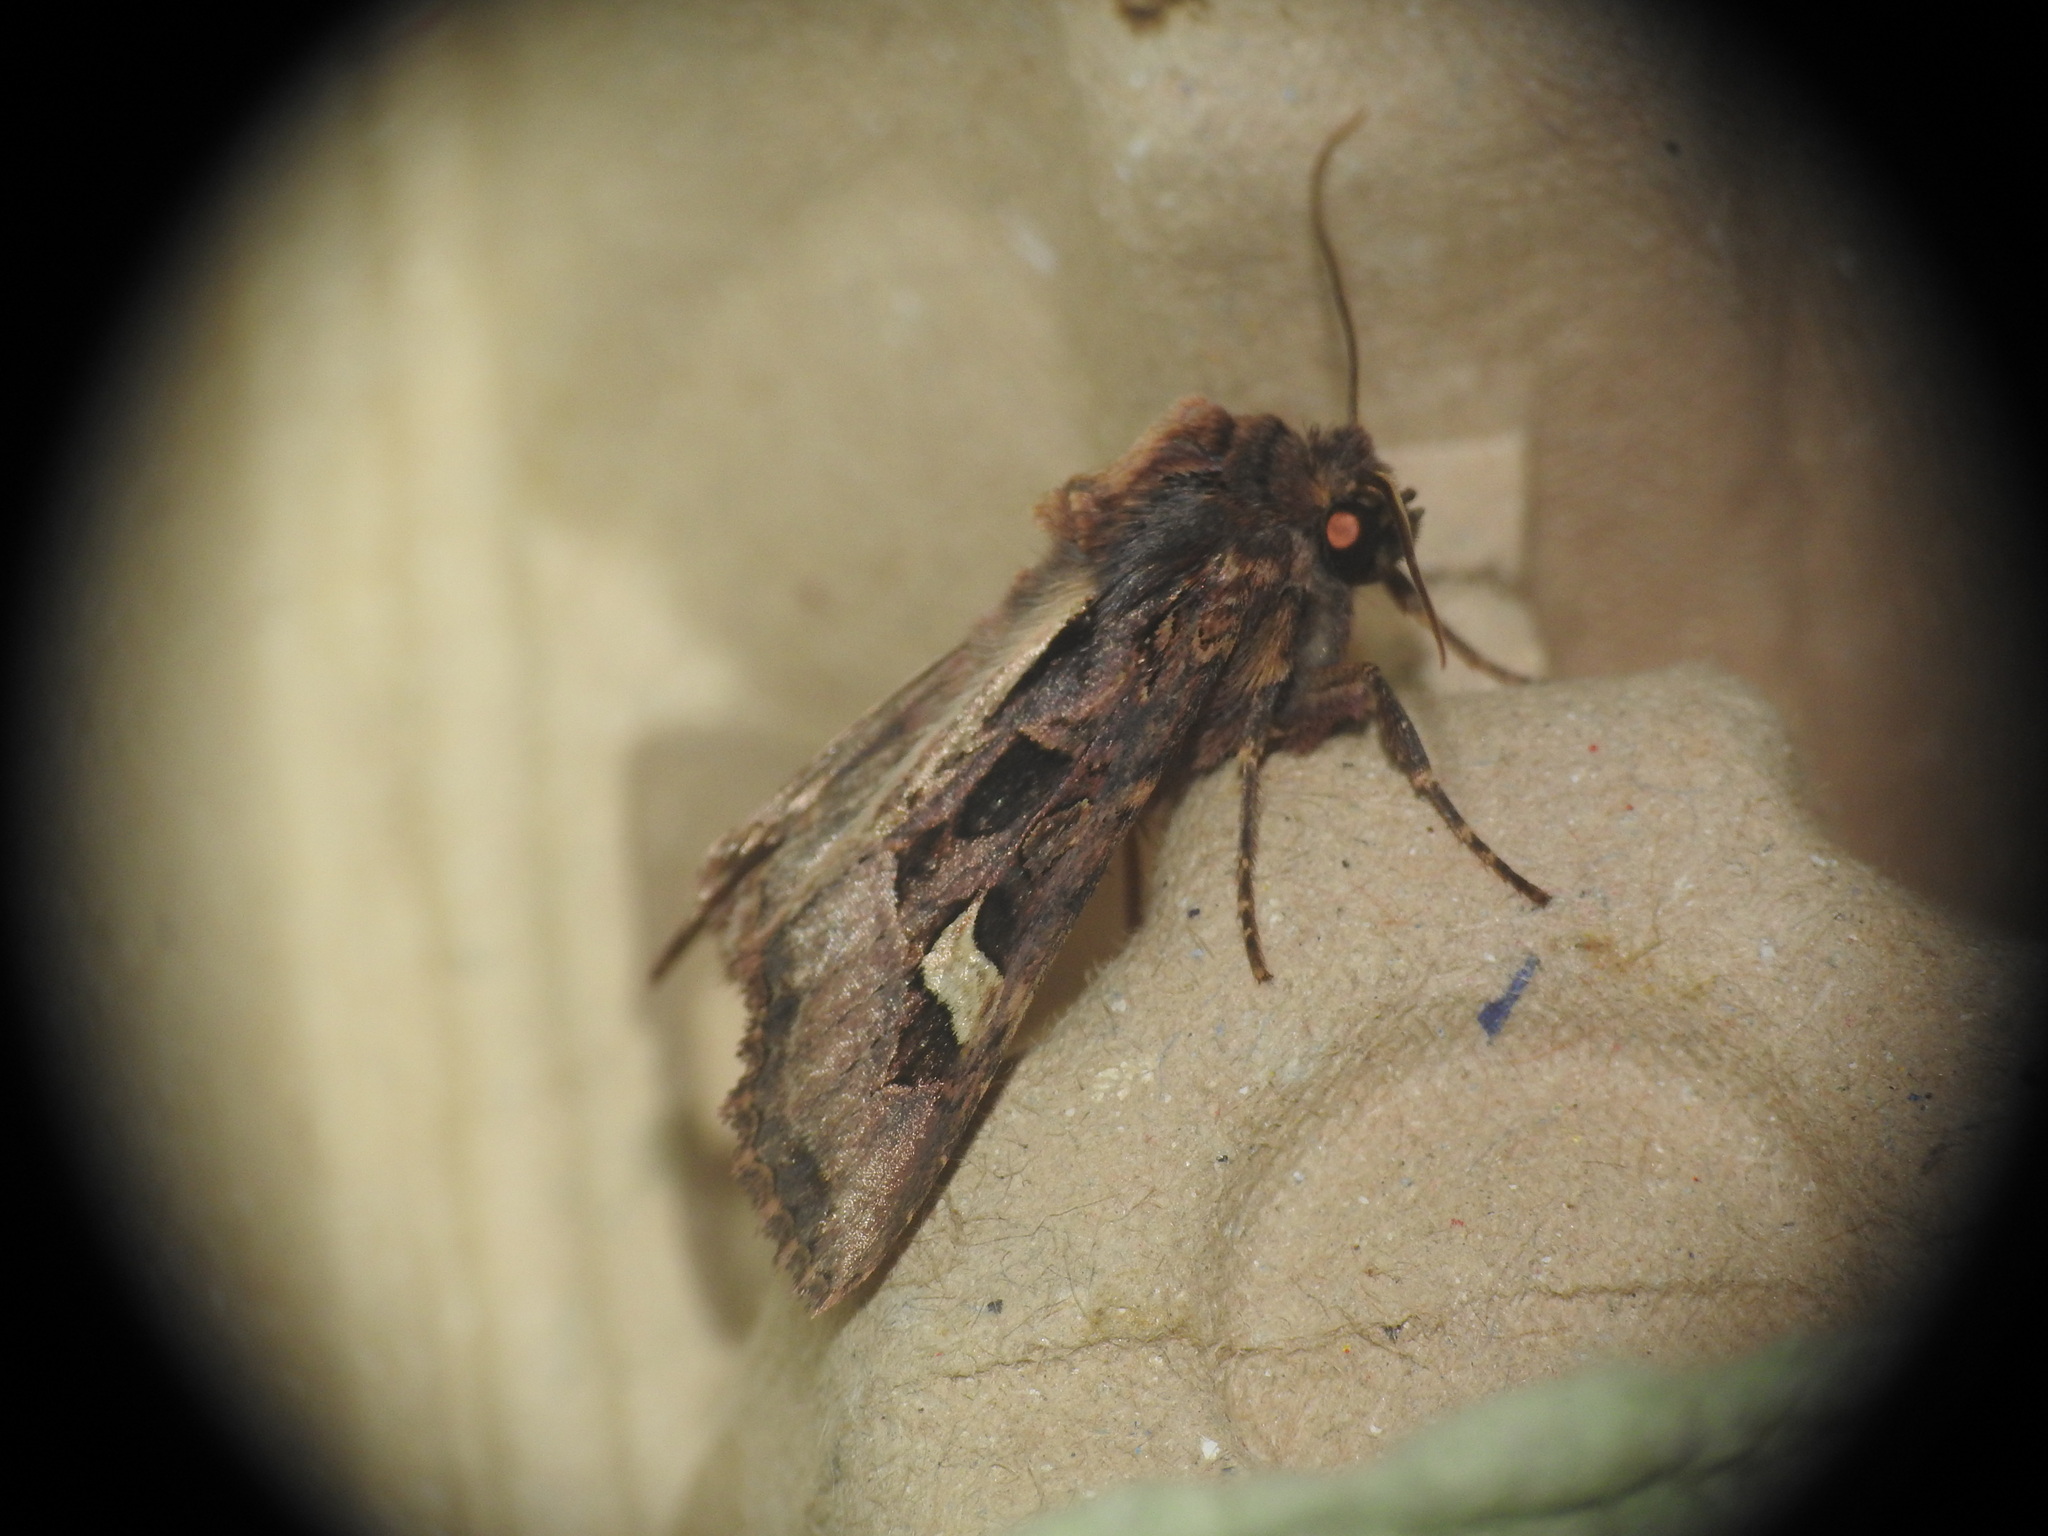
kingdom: Animalia
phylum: Arthropoda
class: Insecta
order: Lepidoptera
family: Noctuidae
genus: Trigonophora
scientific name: Trigonophora flammea
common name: Flame brocade
